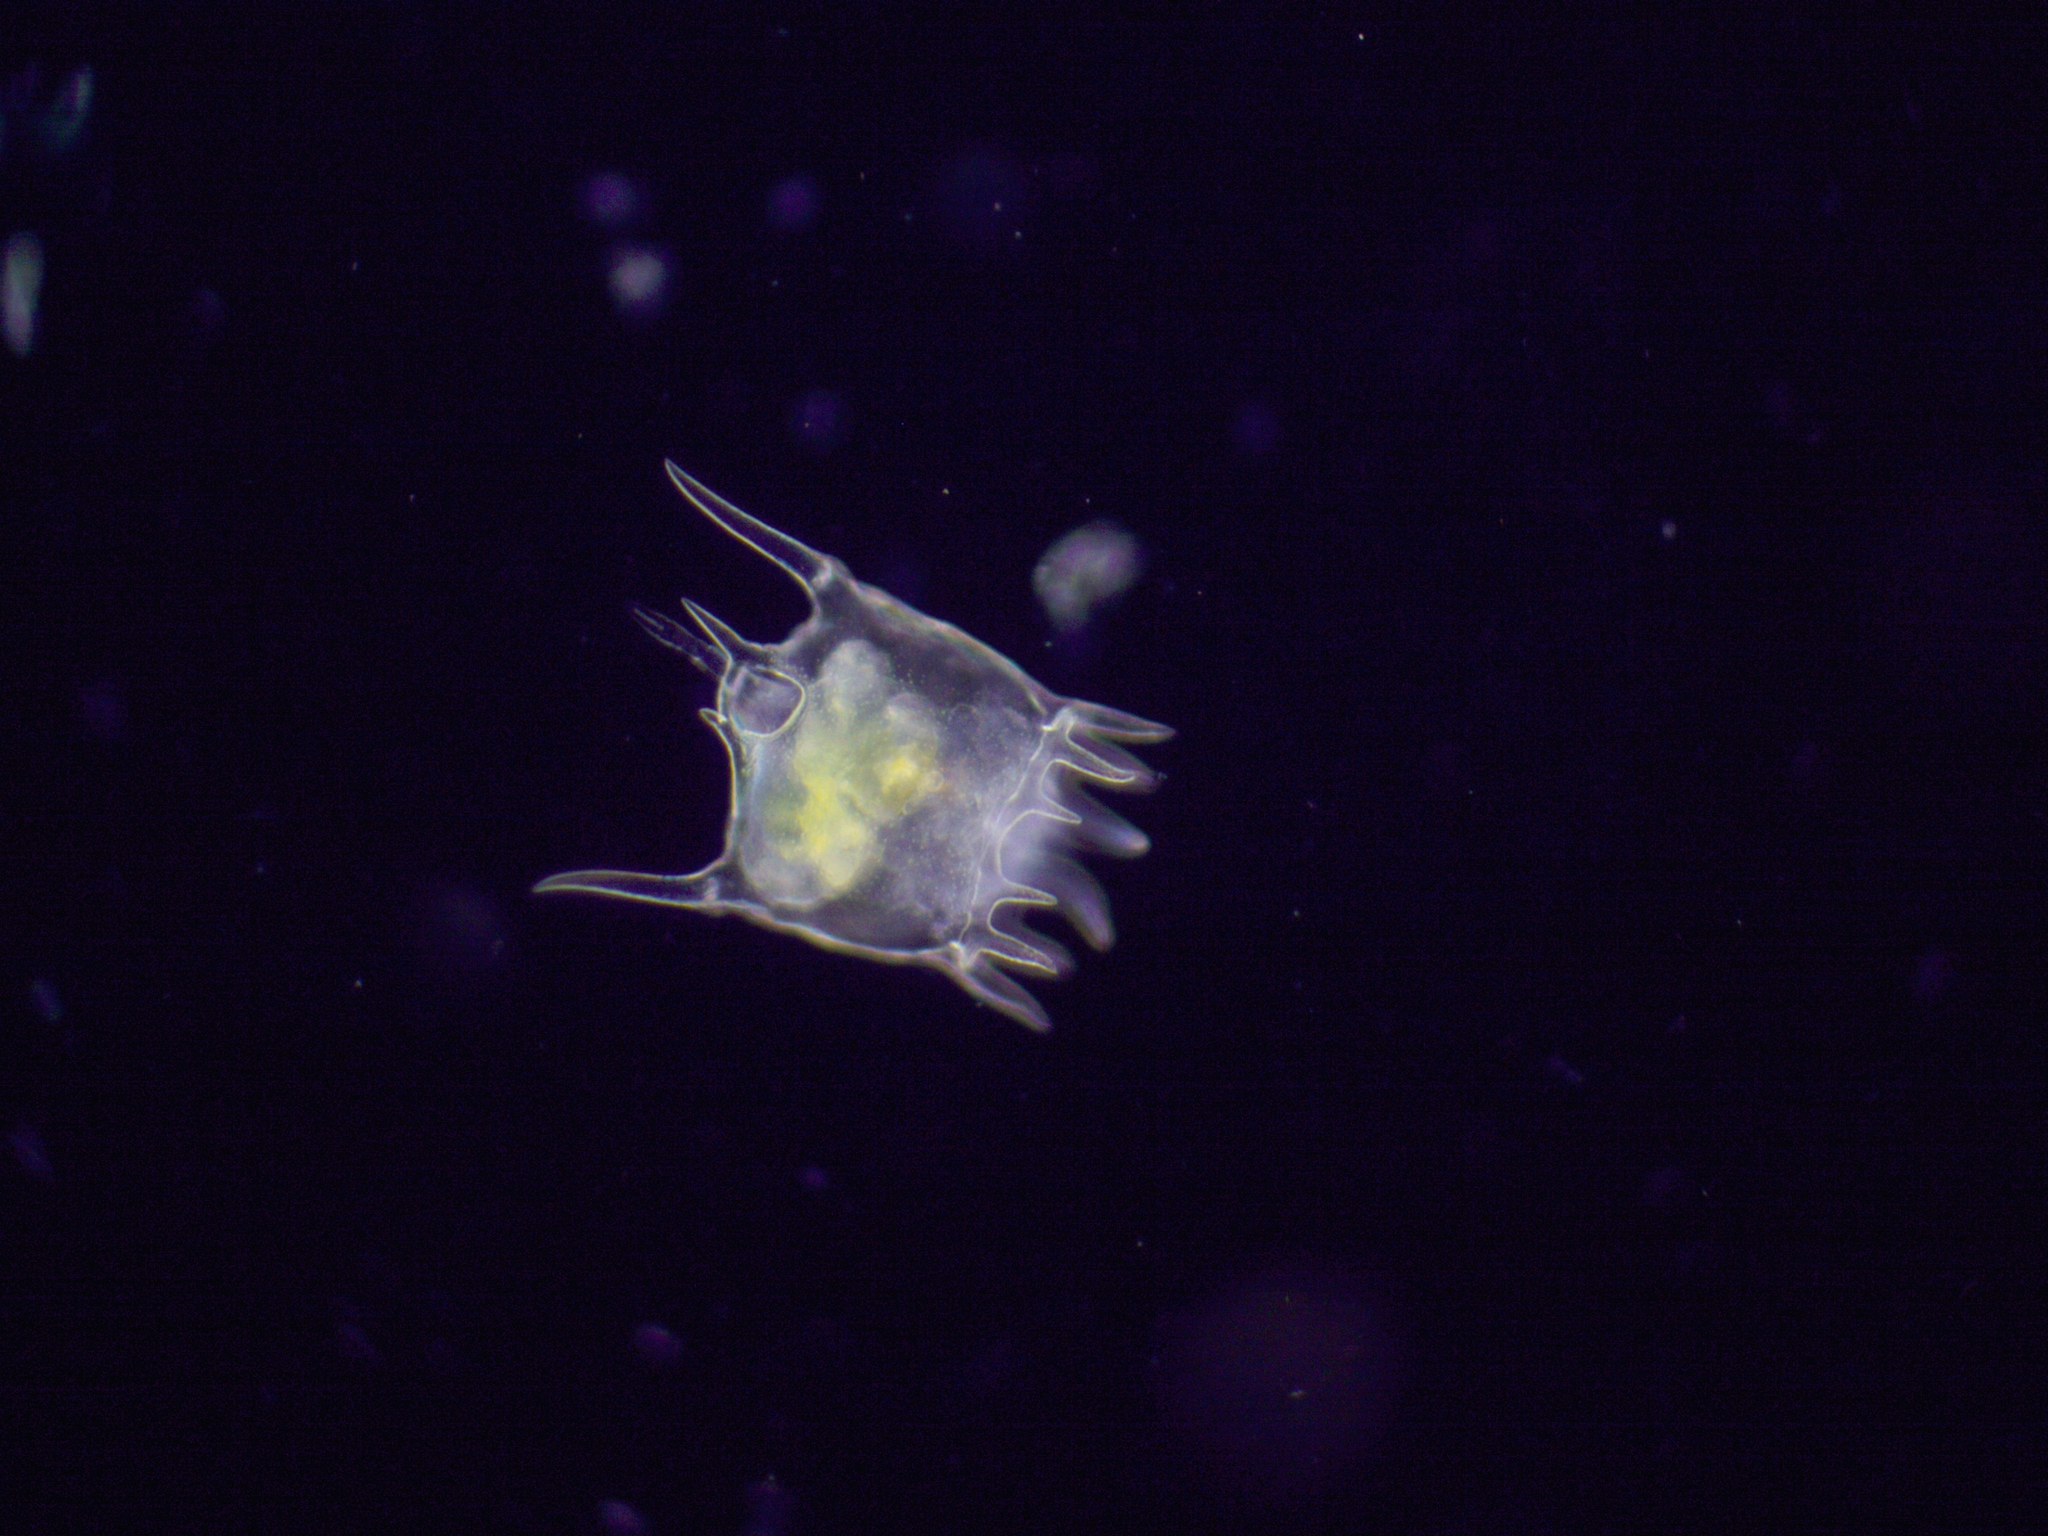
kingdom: Animalia
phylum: Rotifera
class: Eurotatoria
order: Ploima
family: Brachionidae
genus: Plationus
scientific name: Plationus patulus
